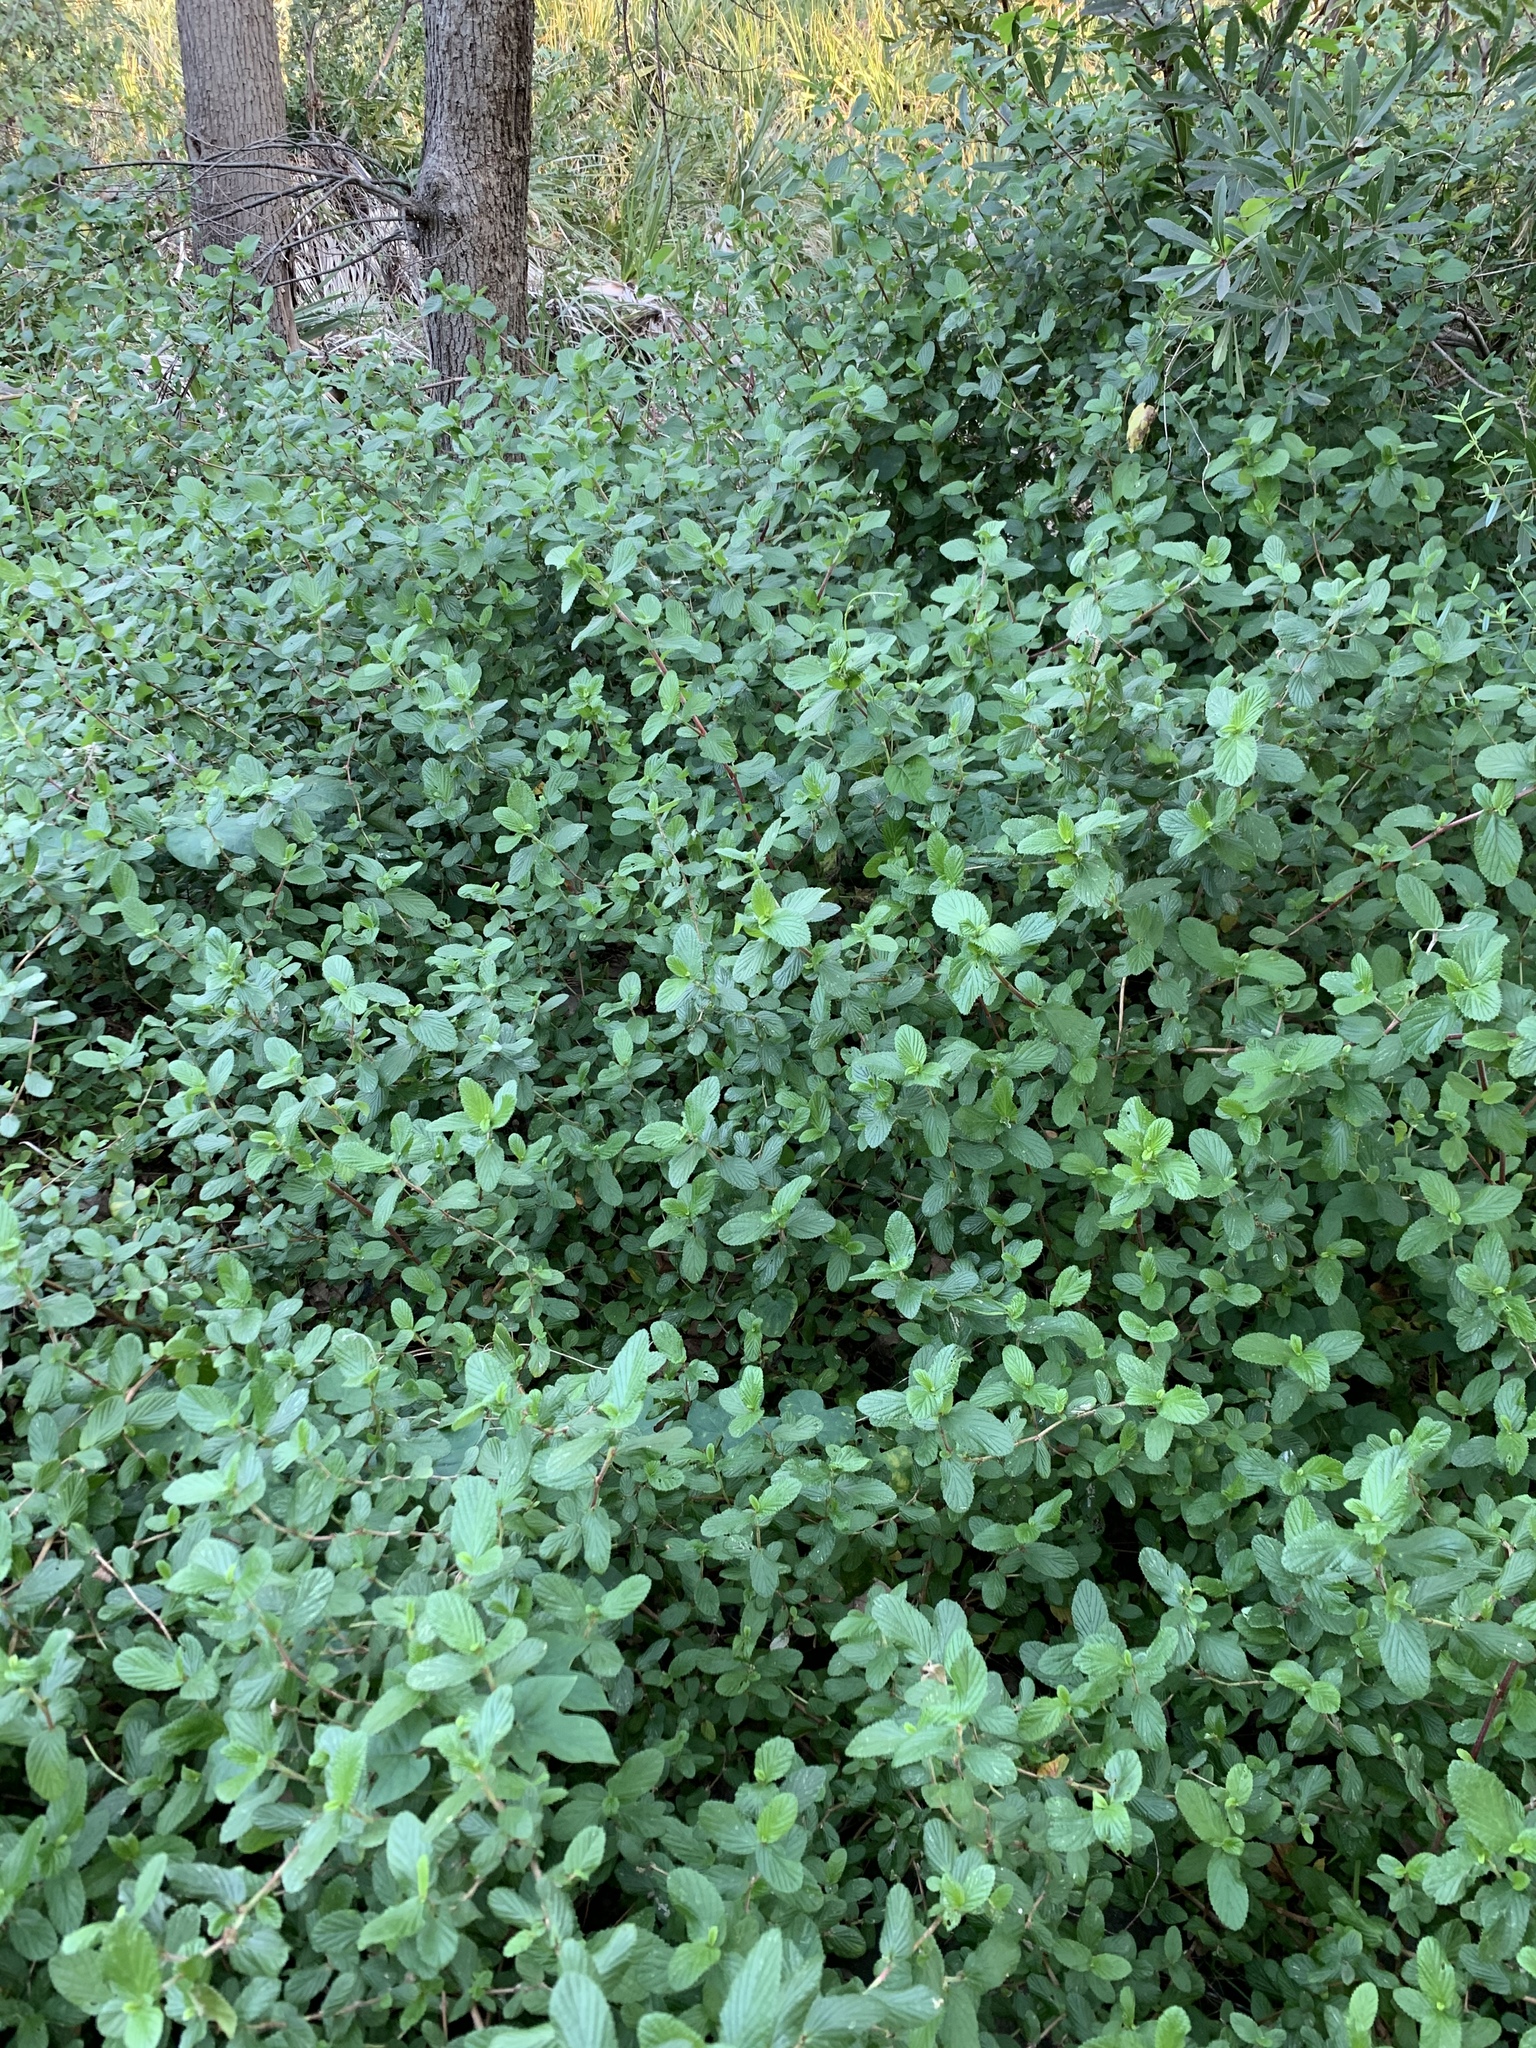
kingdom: Plantae
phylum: Tracheophyta
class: Magnoliopsida
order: Rosales
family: Rosaceae
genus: Cliffortia
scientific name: Cliffortia odorata
